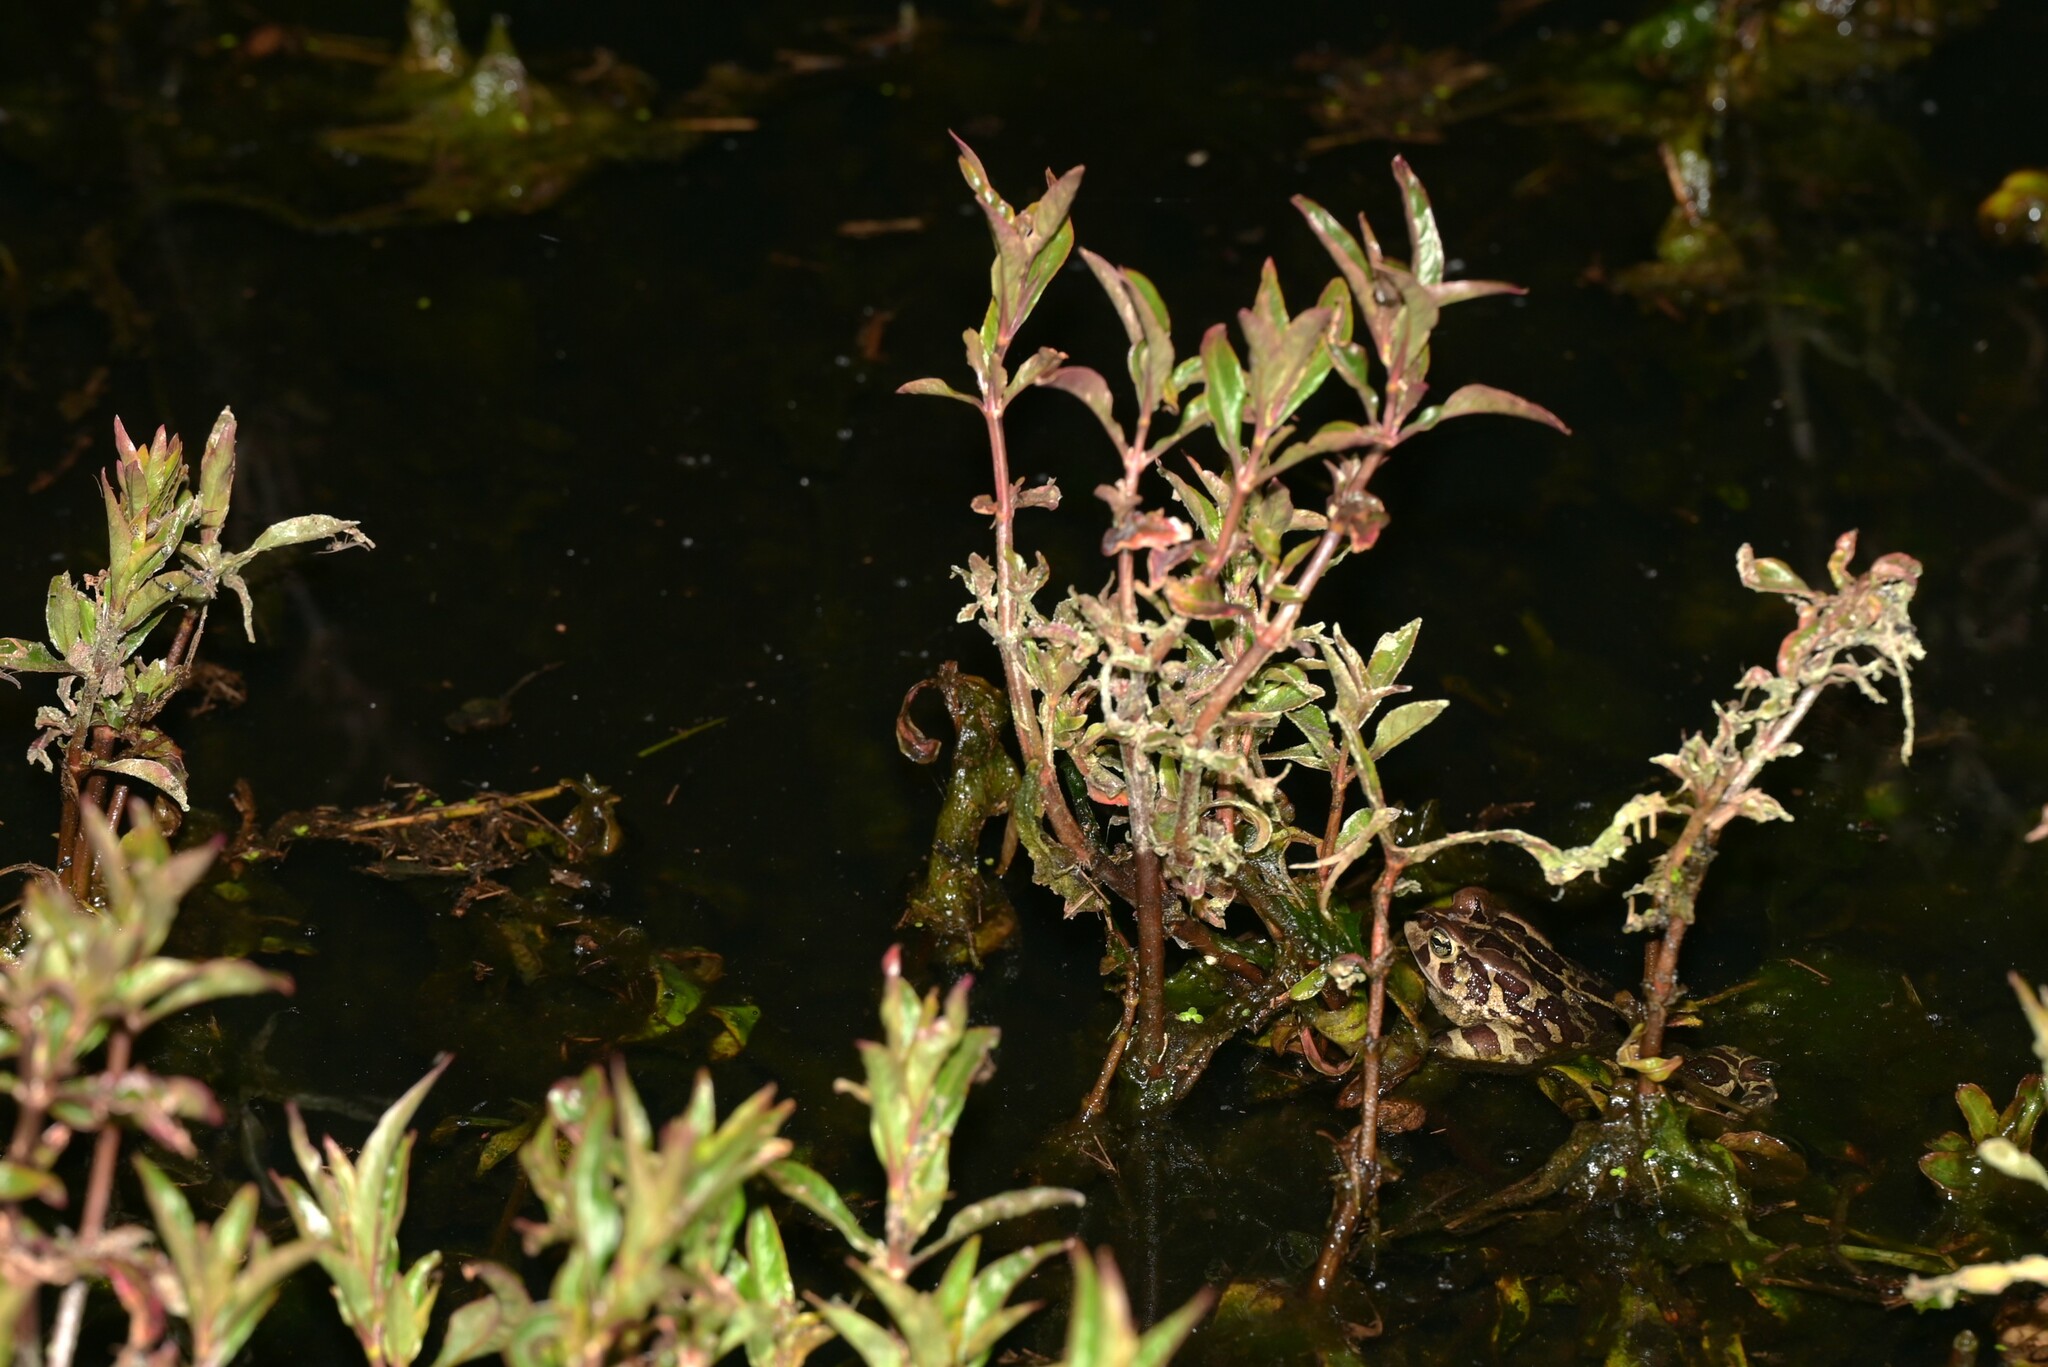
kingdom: Animalia
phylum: Chordata
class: Amphibia
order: Anura
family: Bufonidae
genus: Sclerophrys
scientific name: Sclerophrys pantherina
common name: Panther toad
